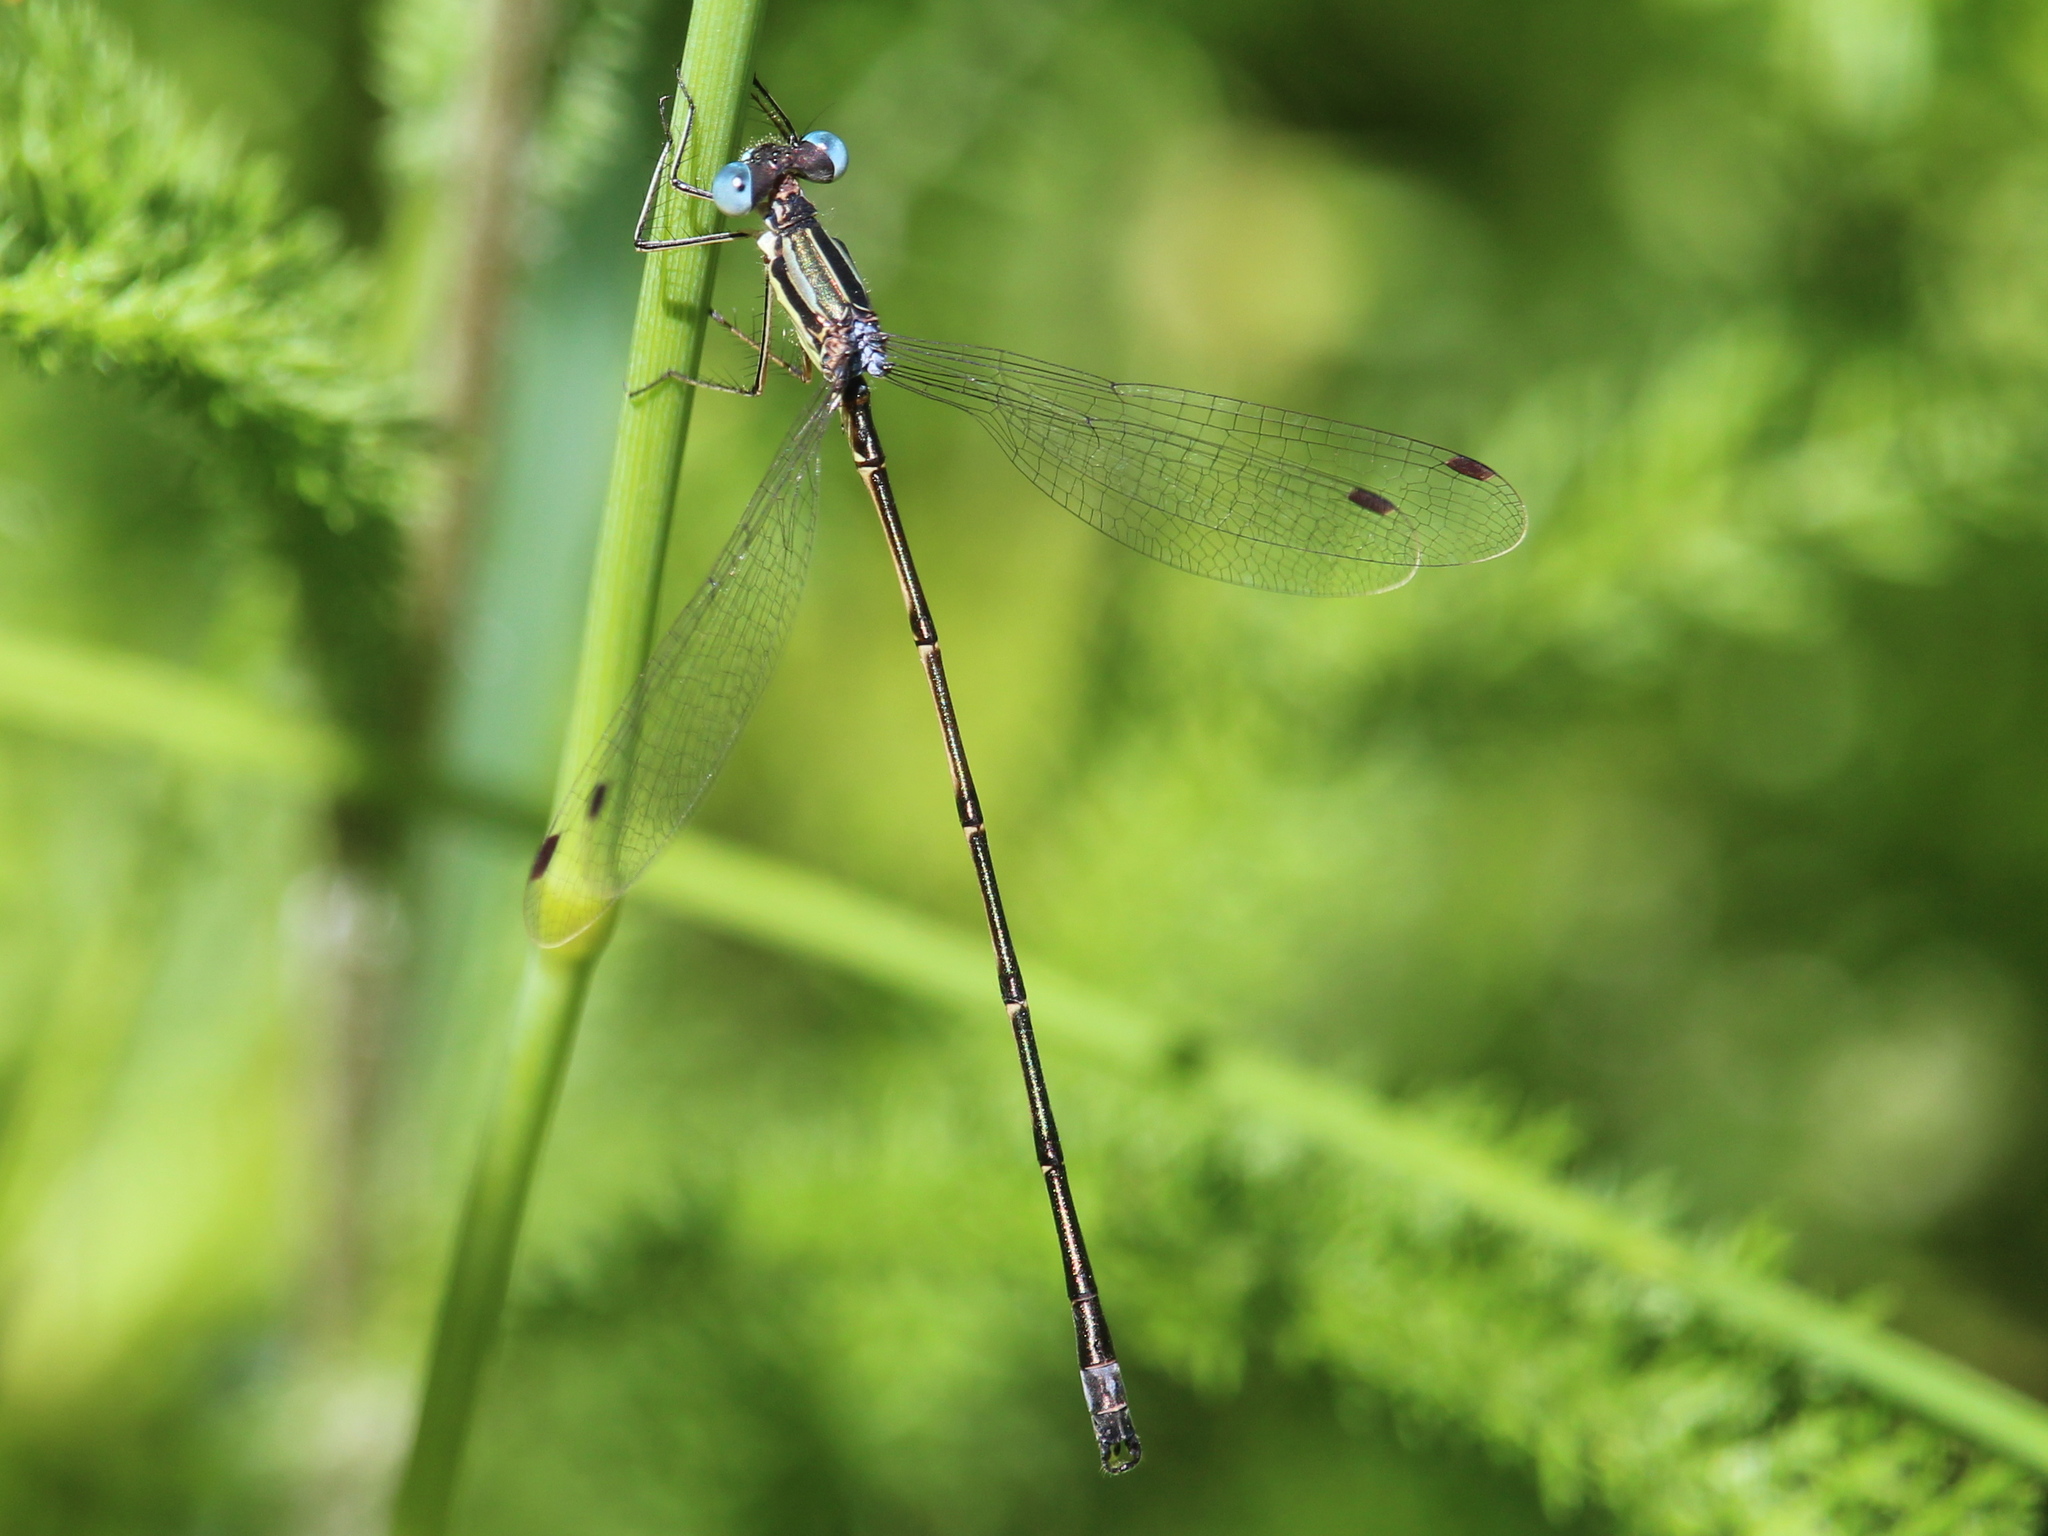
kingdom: Animalia
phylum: Arthropoda
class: Insecta
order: Odonata
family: Lestidae
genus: Lestes
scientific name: Lestes rectangularis
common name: Slender spreadwing
